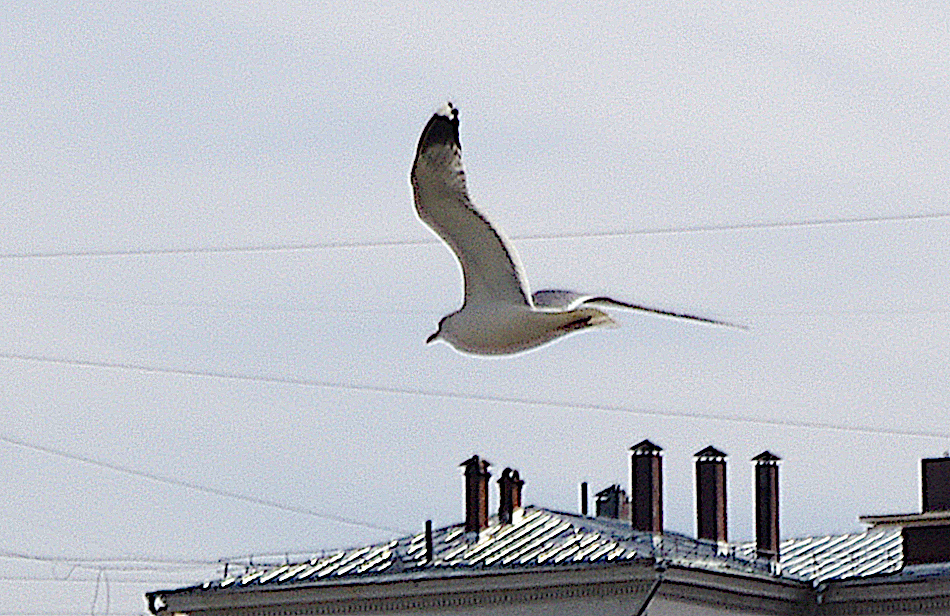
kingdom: Animalia
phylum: Chordata
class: Aves
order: Charadriiformes
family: Laridae
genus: Larus
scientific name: Larus canus
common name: Mew gull
